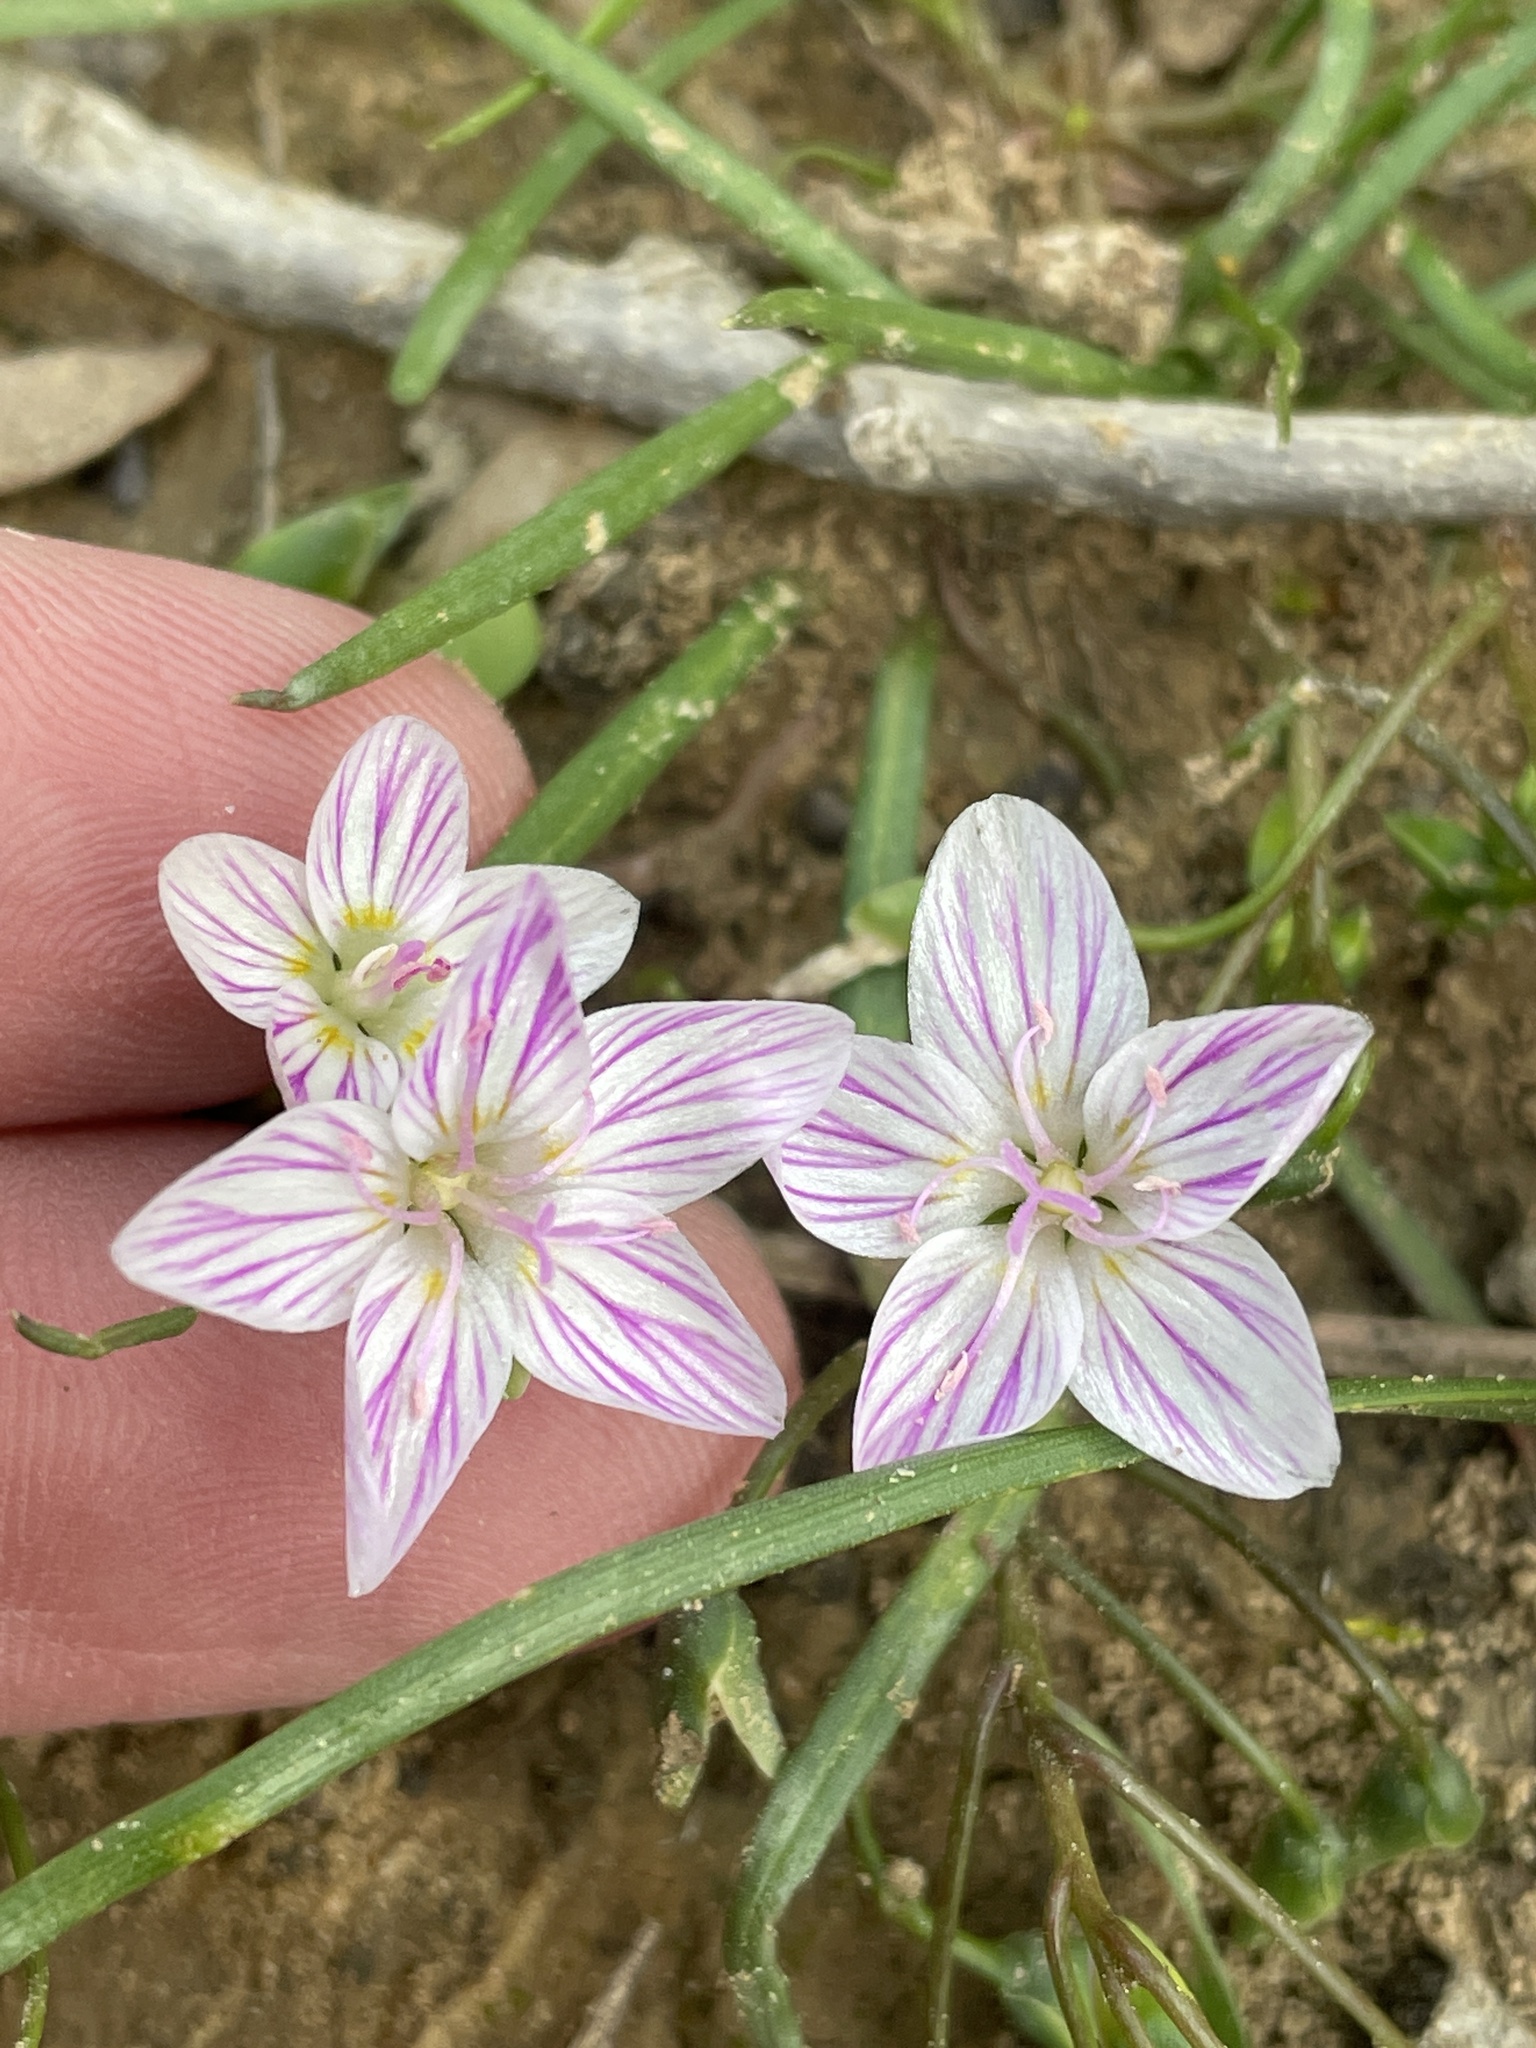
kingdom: Plantae
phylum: Tracheophyta
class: Magnoliopsida
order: Caryophyllales
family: Montiaceae
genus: Claytonia
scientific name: Claytonia virginica
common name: Virginia springbeauty
